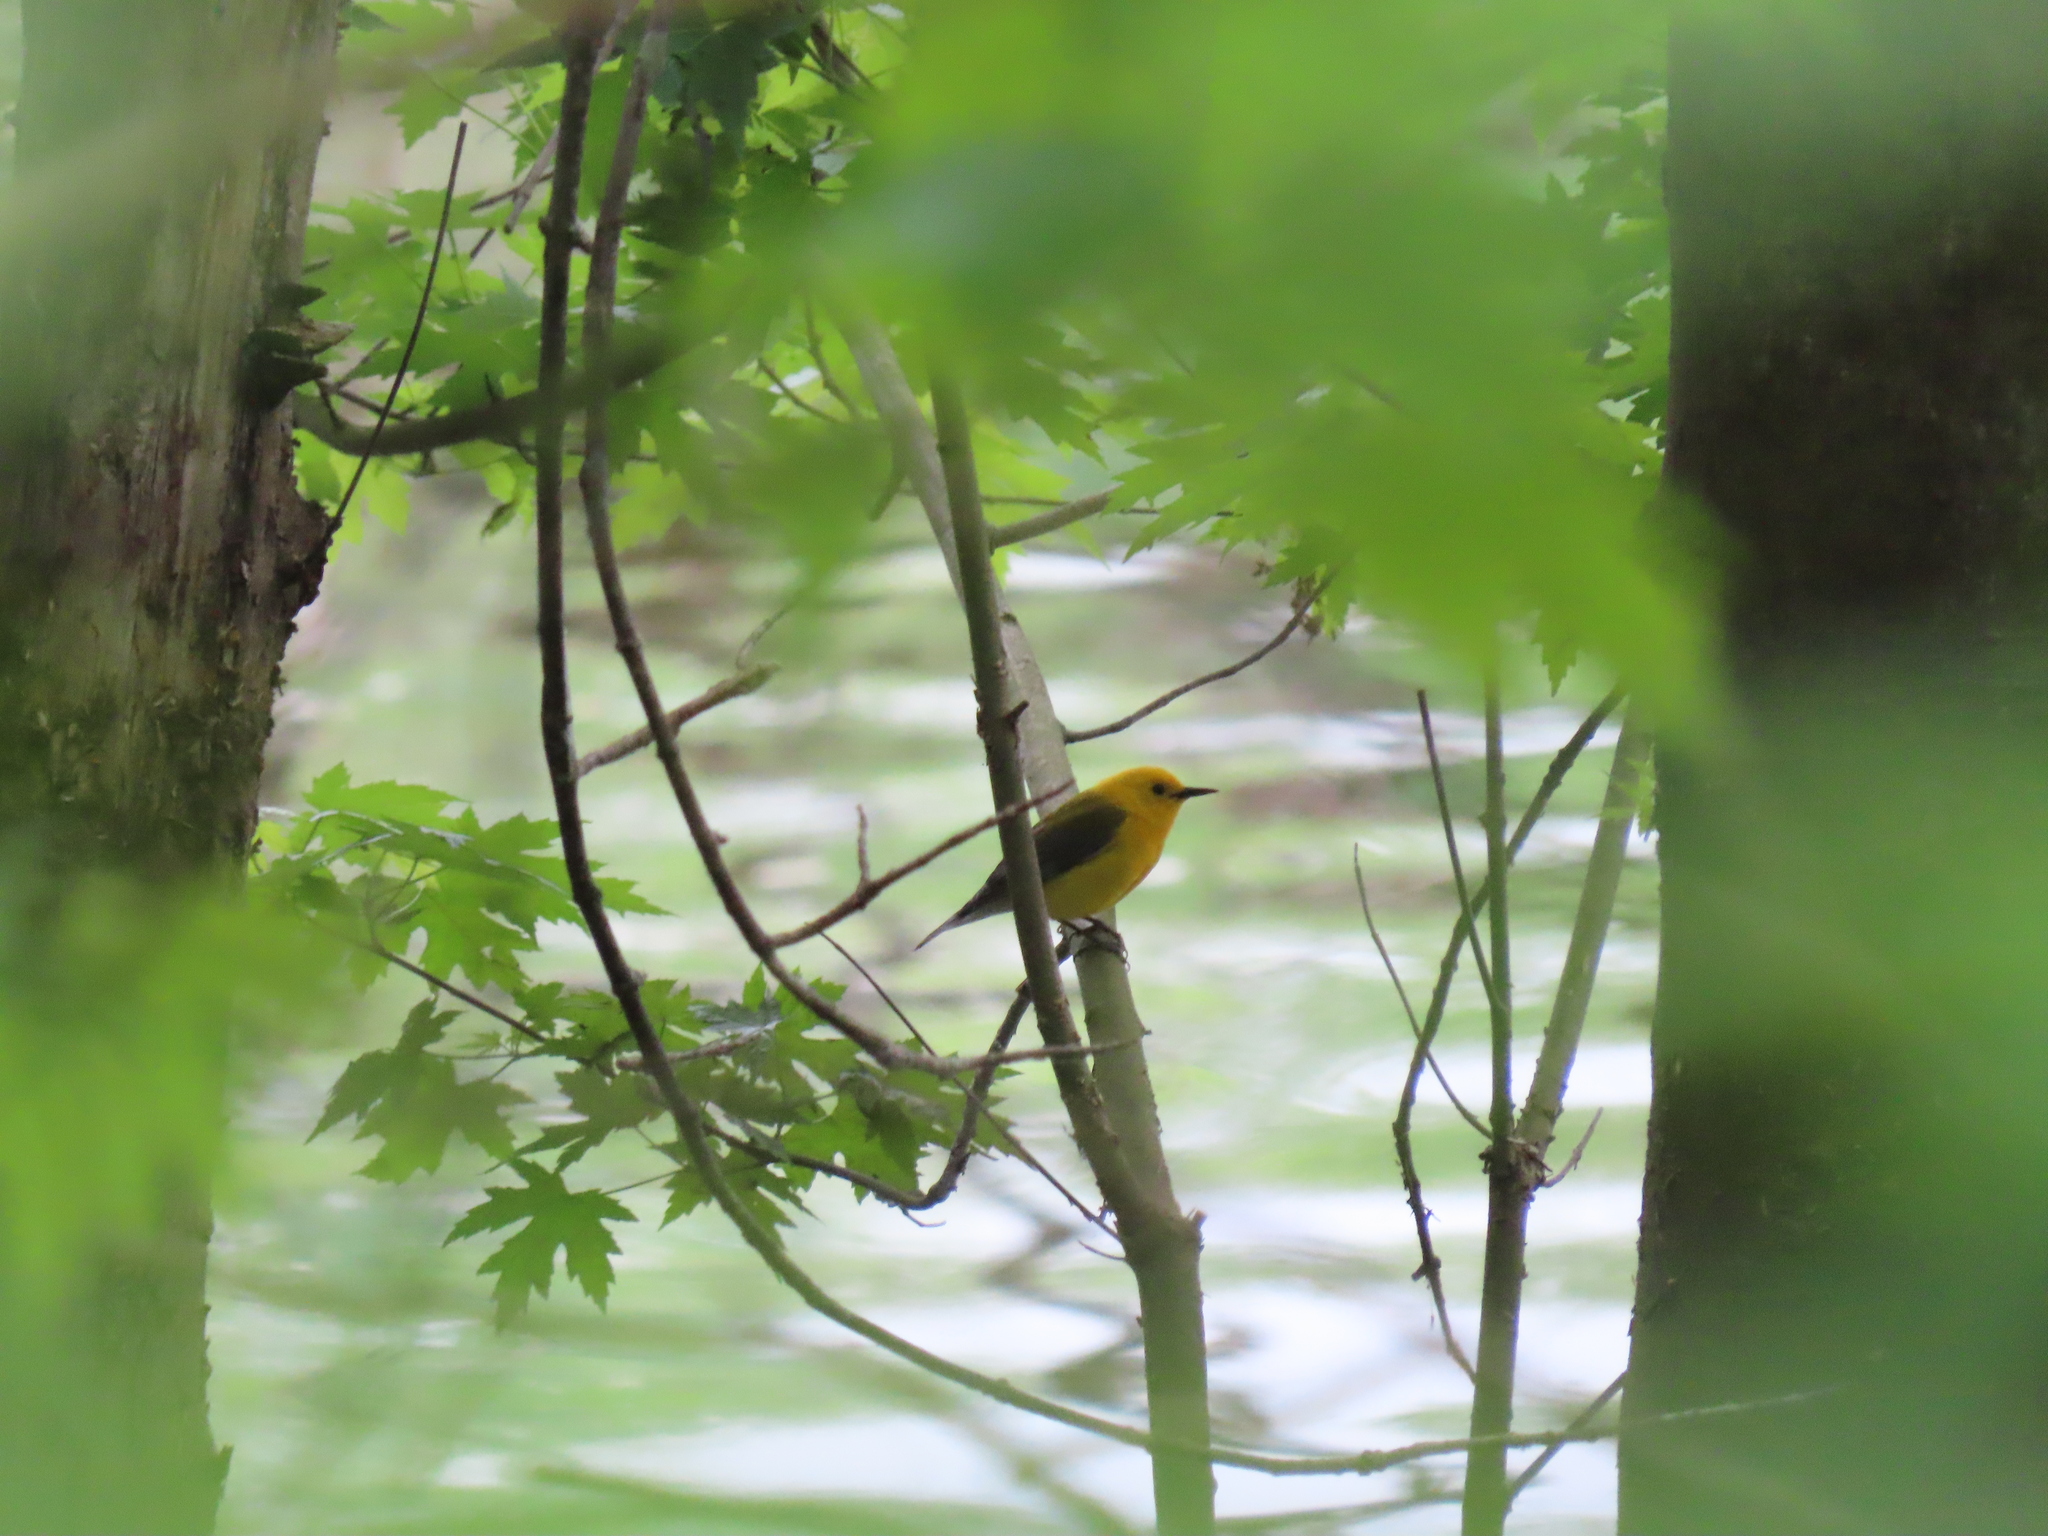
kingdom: Animalia
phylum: Chordata
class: Aves
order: Passeriformes
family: Parulidae
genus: Protonotaria
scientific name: Protonotaria citrea
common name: Prothonotary warbler
